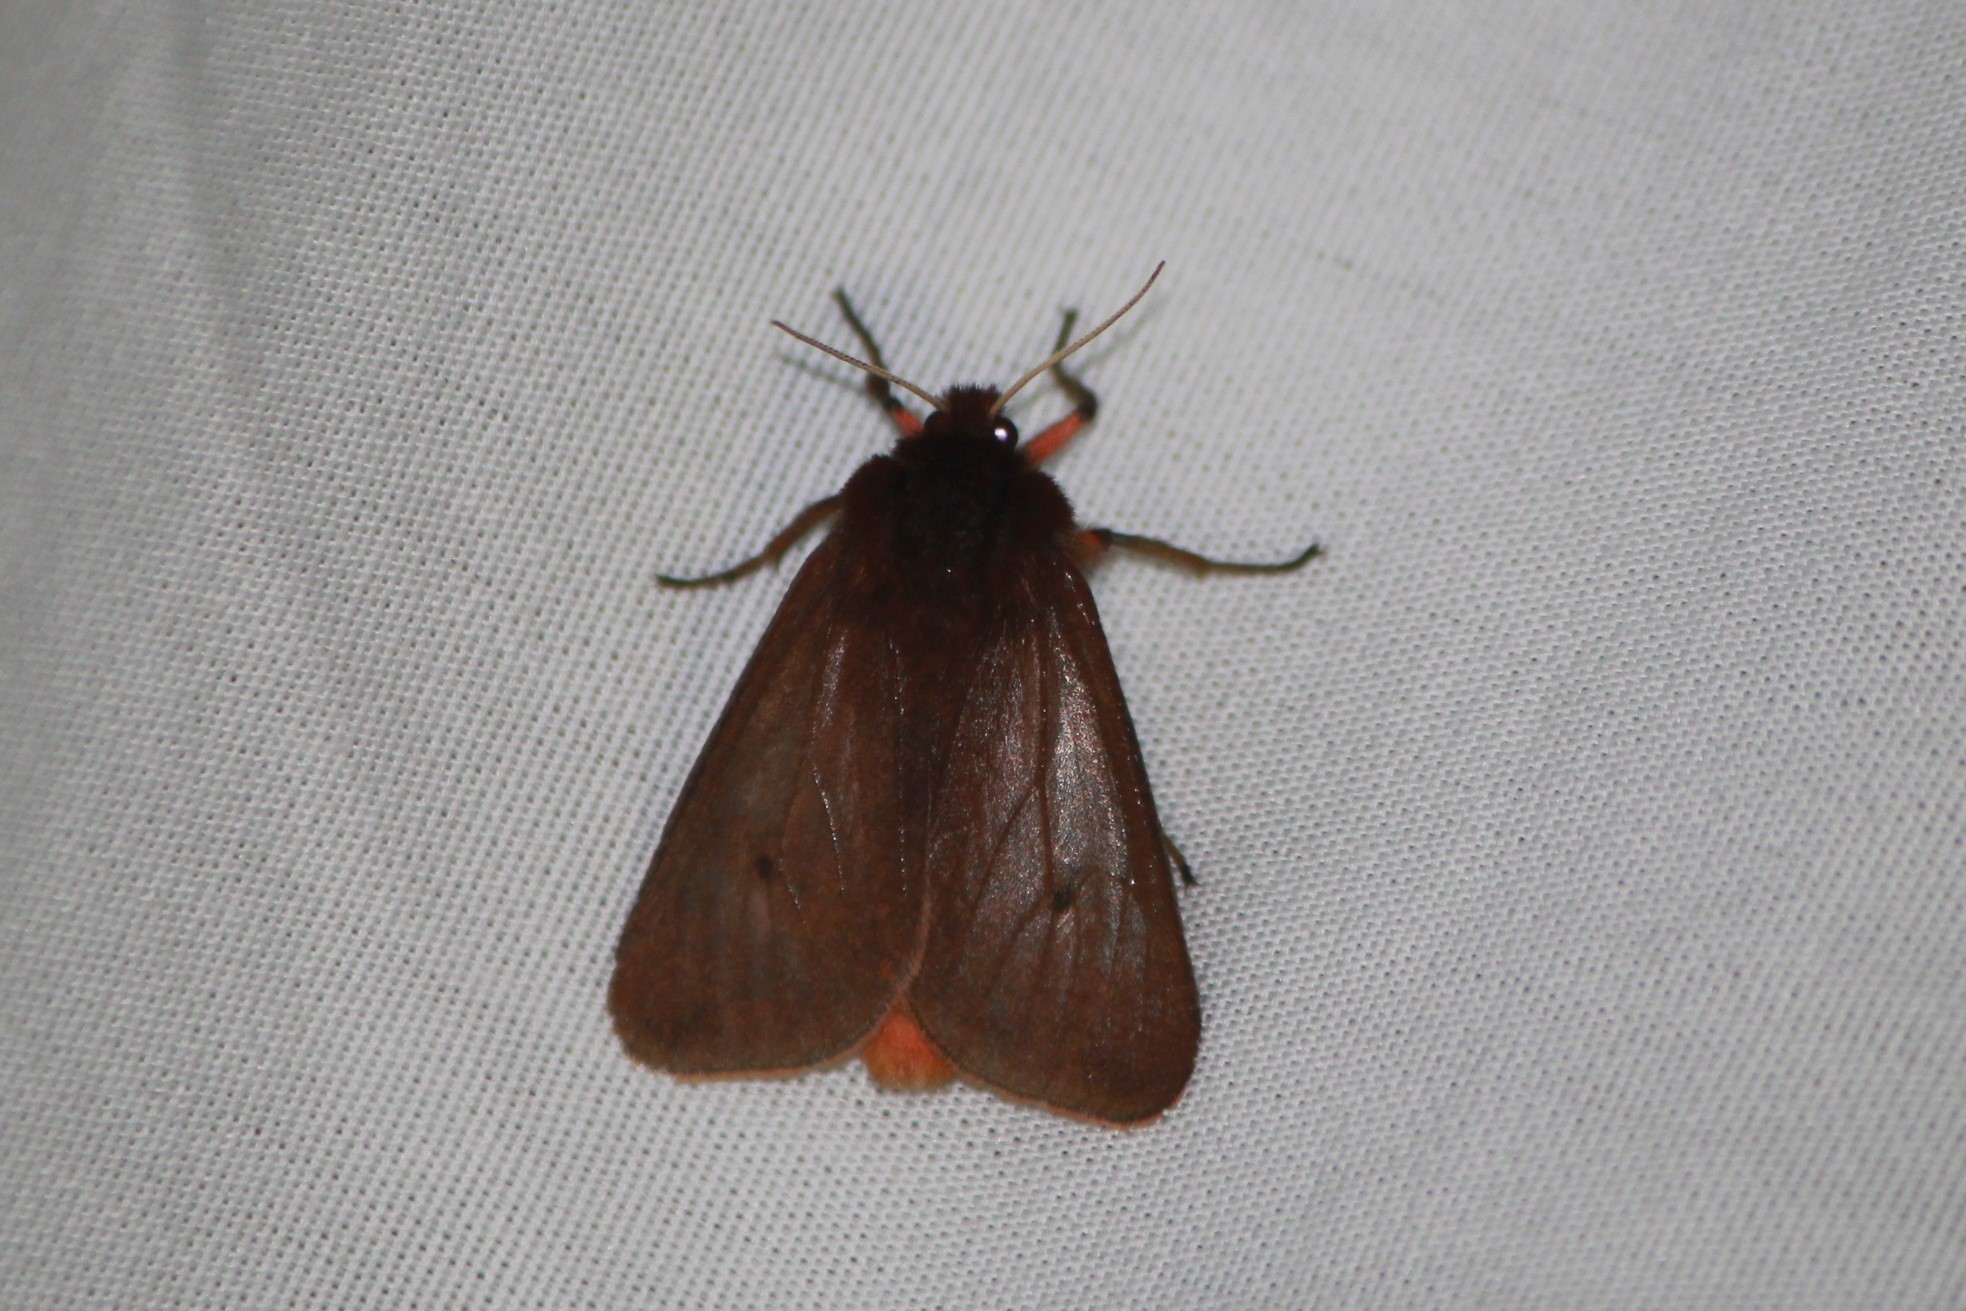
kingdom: Animalia
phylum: Arthropoda
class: Insecta
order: Lepidoptera
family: Erebidae
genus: Phragmatobia
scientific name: Phragmatobia fuliginosa
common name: Ruby tiger
